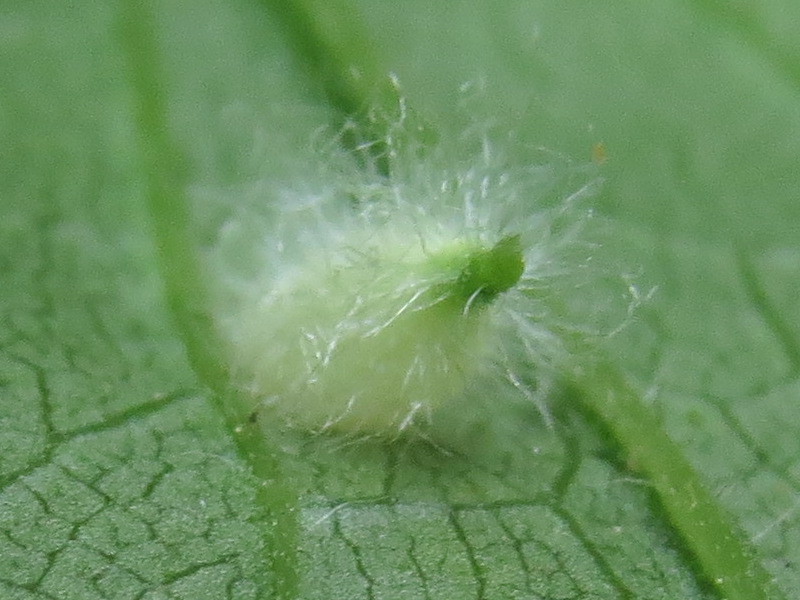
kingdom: Animalia
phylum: Arthropoda
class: Insecta
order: Diptera
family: Cecidomyiidae
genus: Rhopalomyia
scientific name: Rhopalomyia clarkei
